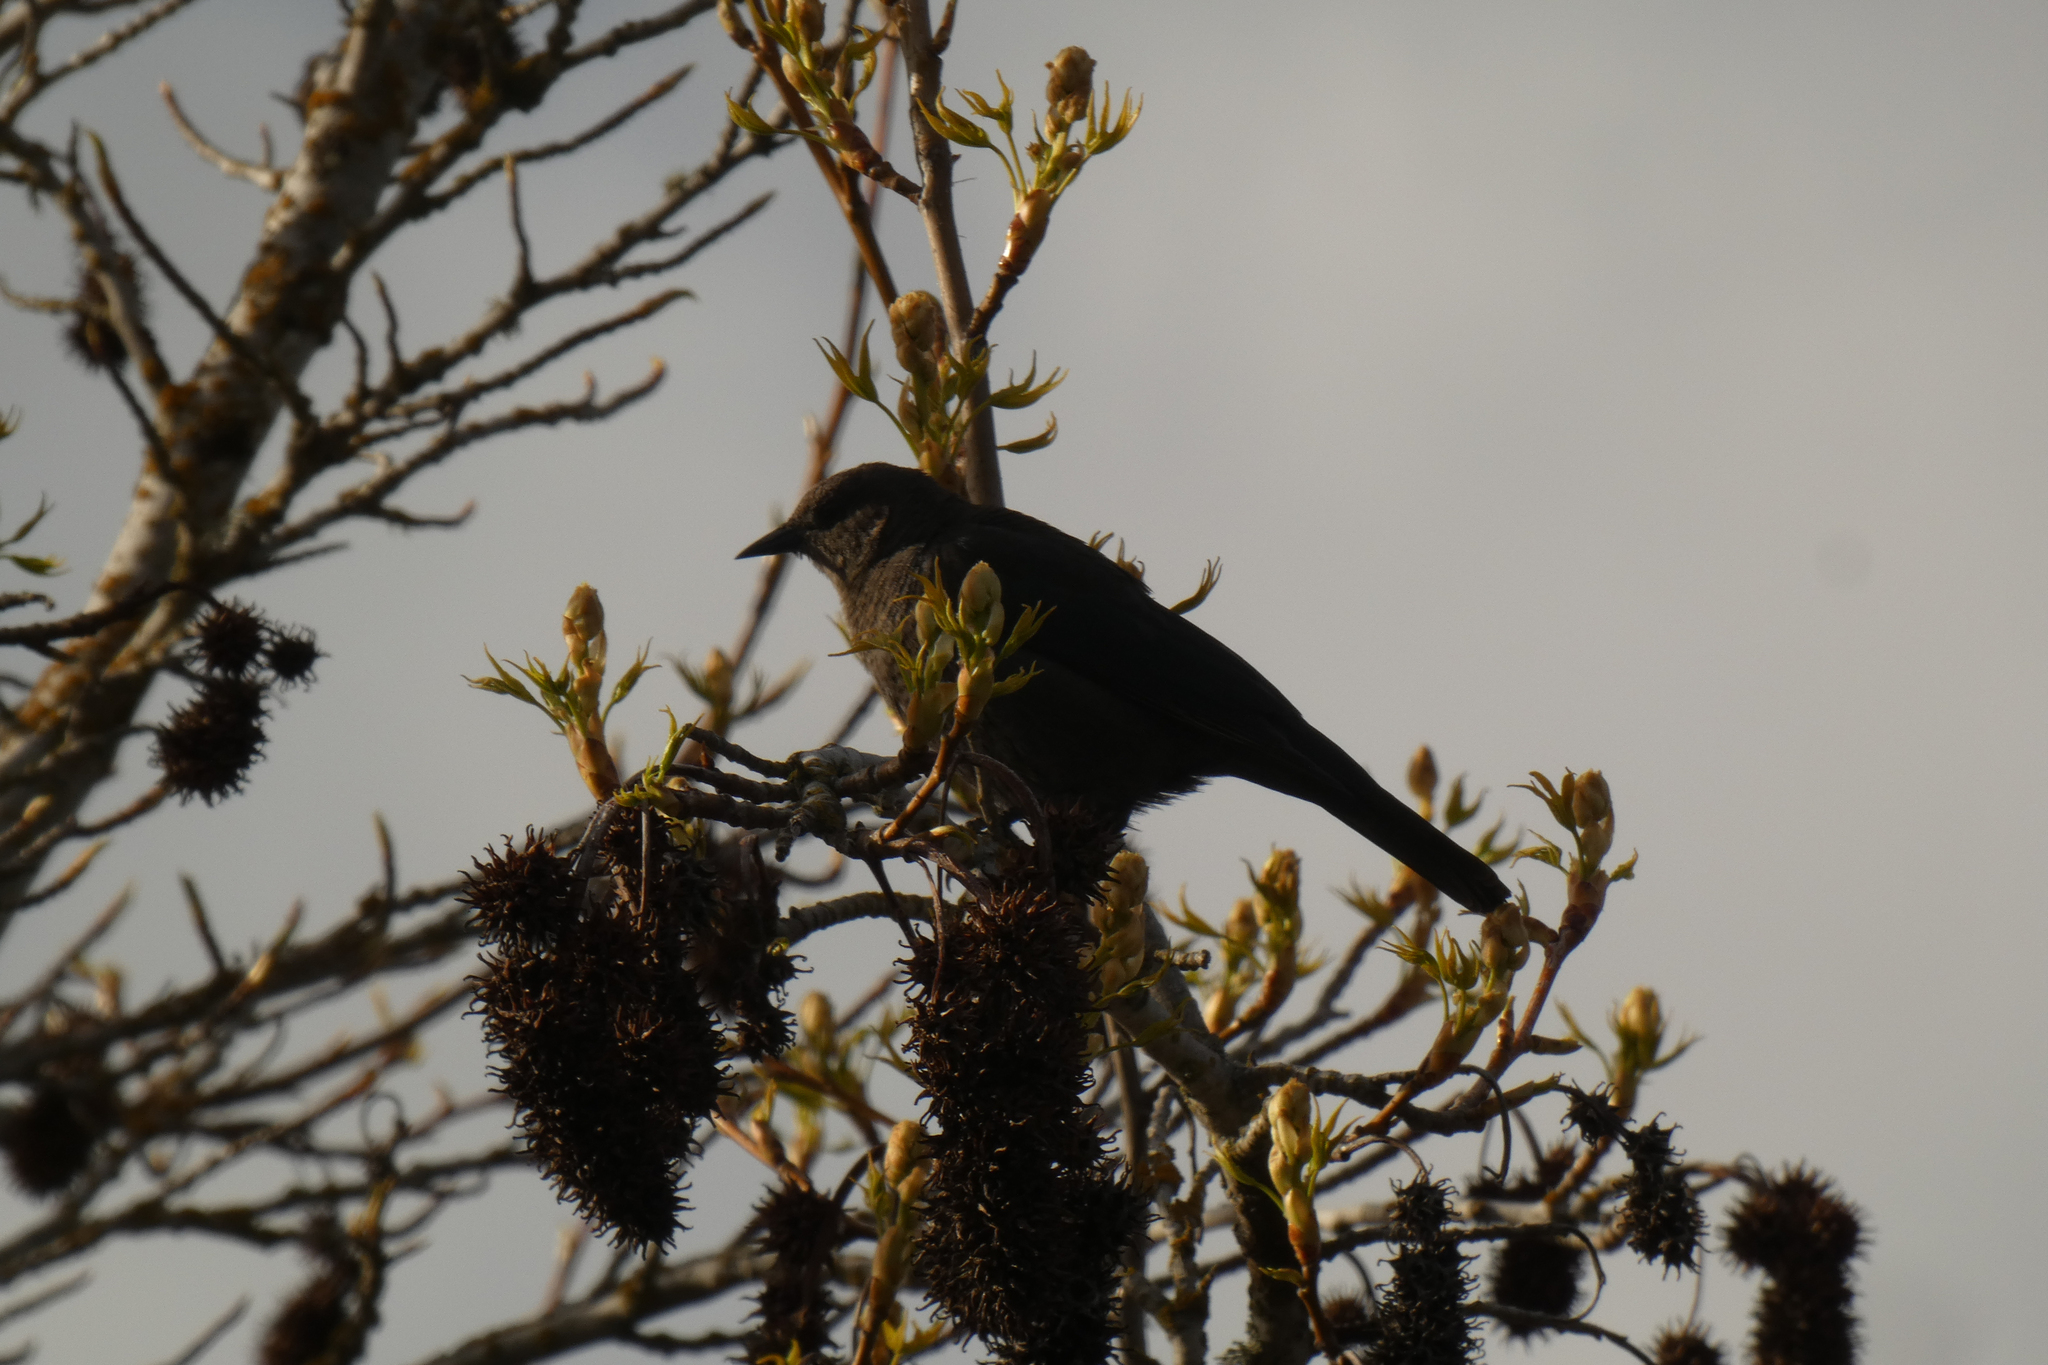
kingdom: Animalia
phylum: Chordata
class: Aves
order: Passeriformes
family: Icteridae
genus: Euphagus
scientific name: Euphagus cyanocephalus
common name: Brewer's blackbird
